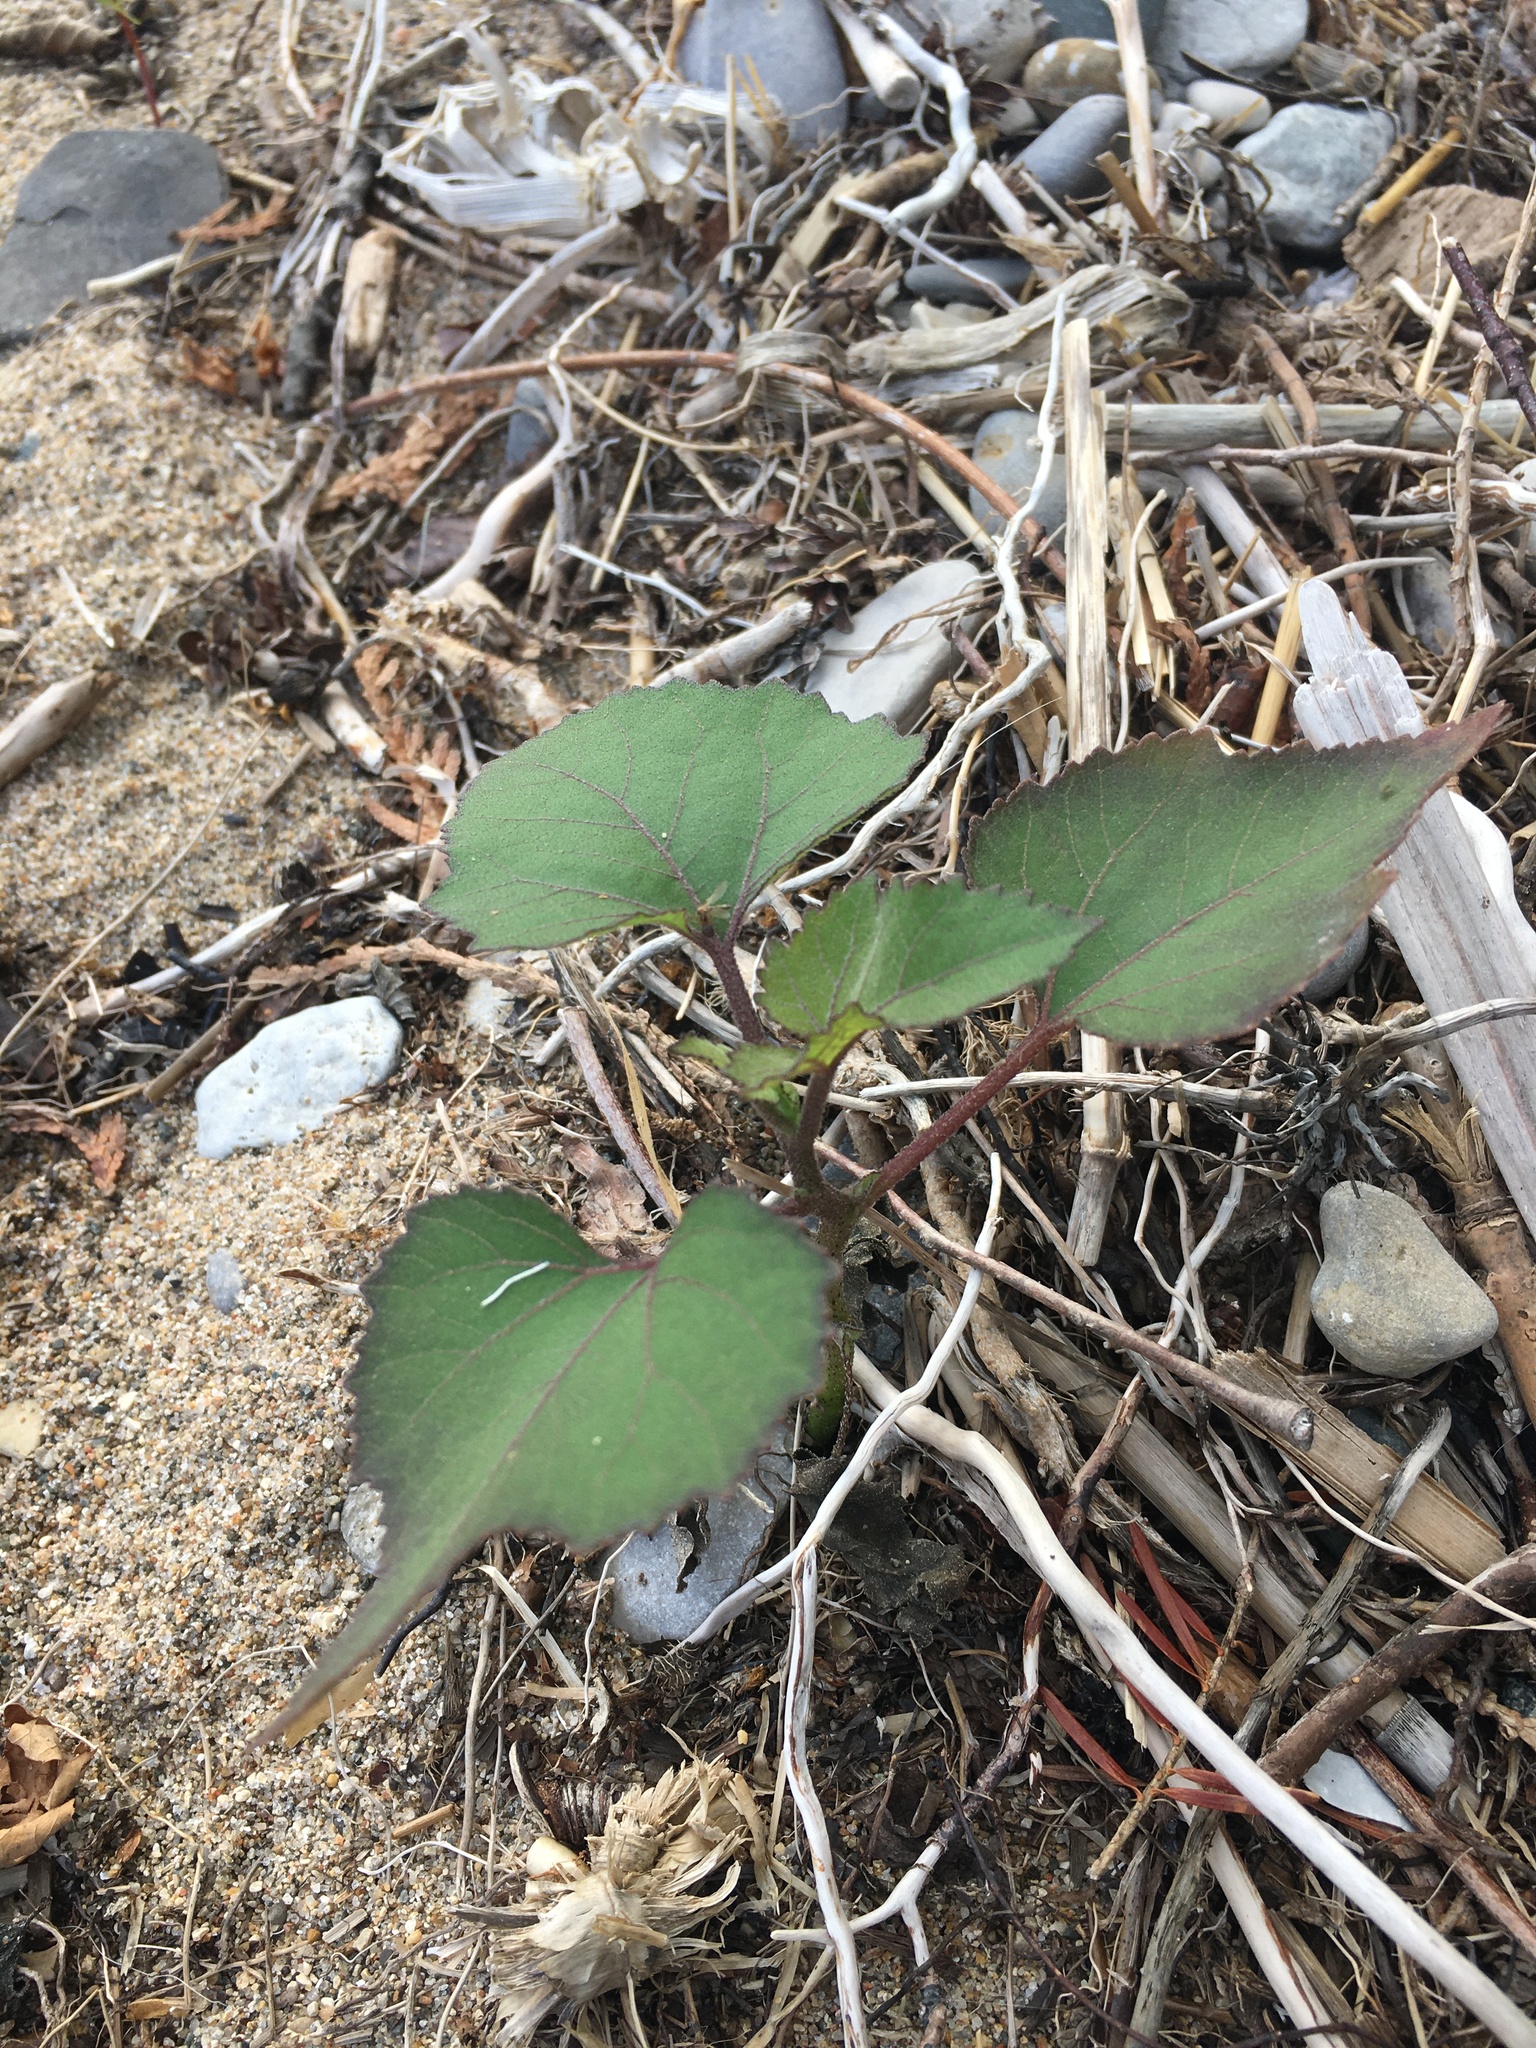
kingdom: Plantae
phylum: Tracheophyta
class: Magnoliopsida
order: Asterales
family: Asteraceae
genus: Xanthium
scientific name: Xanthium strumarium
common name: Rough cocklebur
